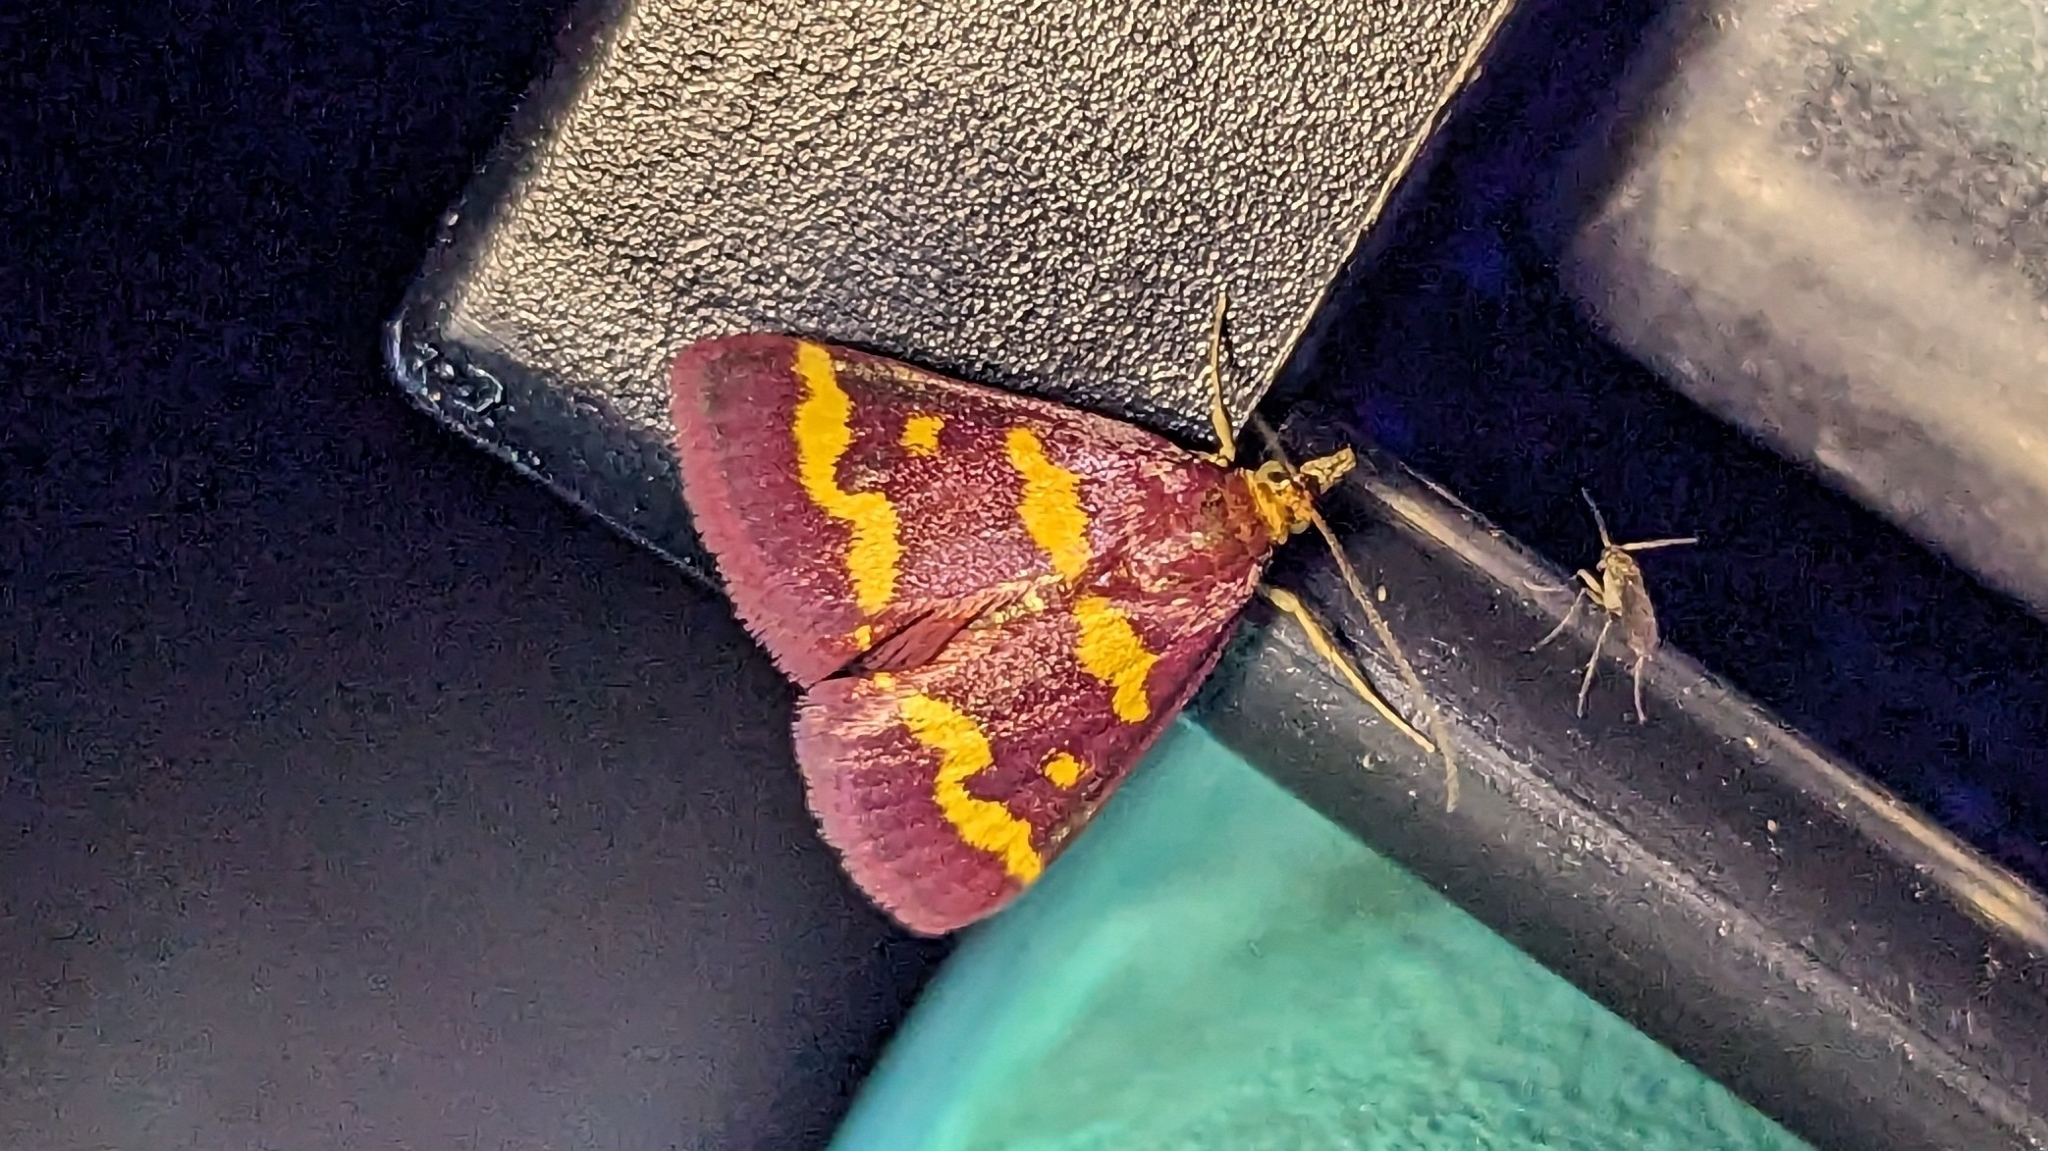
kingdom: Animalia
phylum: Arthropoda
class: Insecta
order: Lepidoptera
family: Crambidae
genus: Pyrausta
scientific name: Pyrausta tyralis
